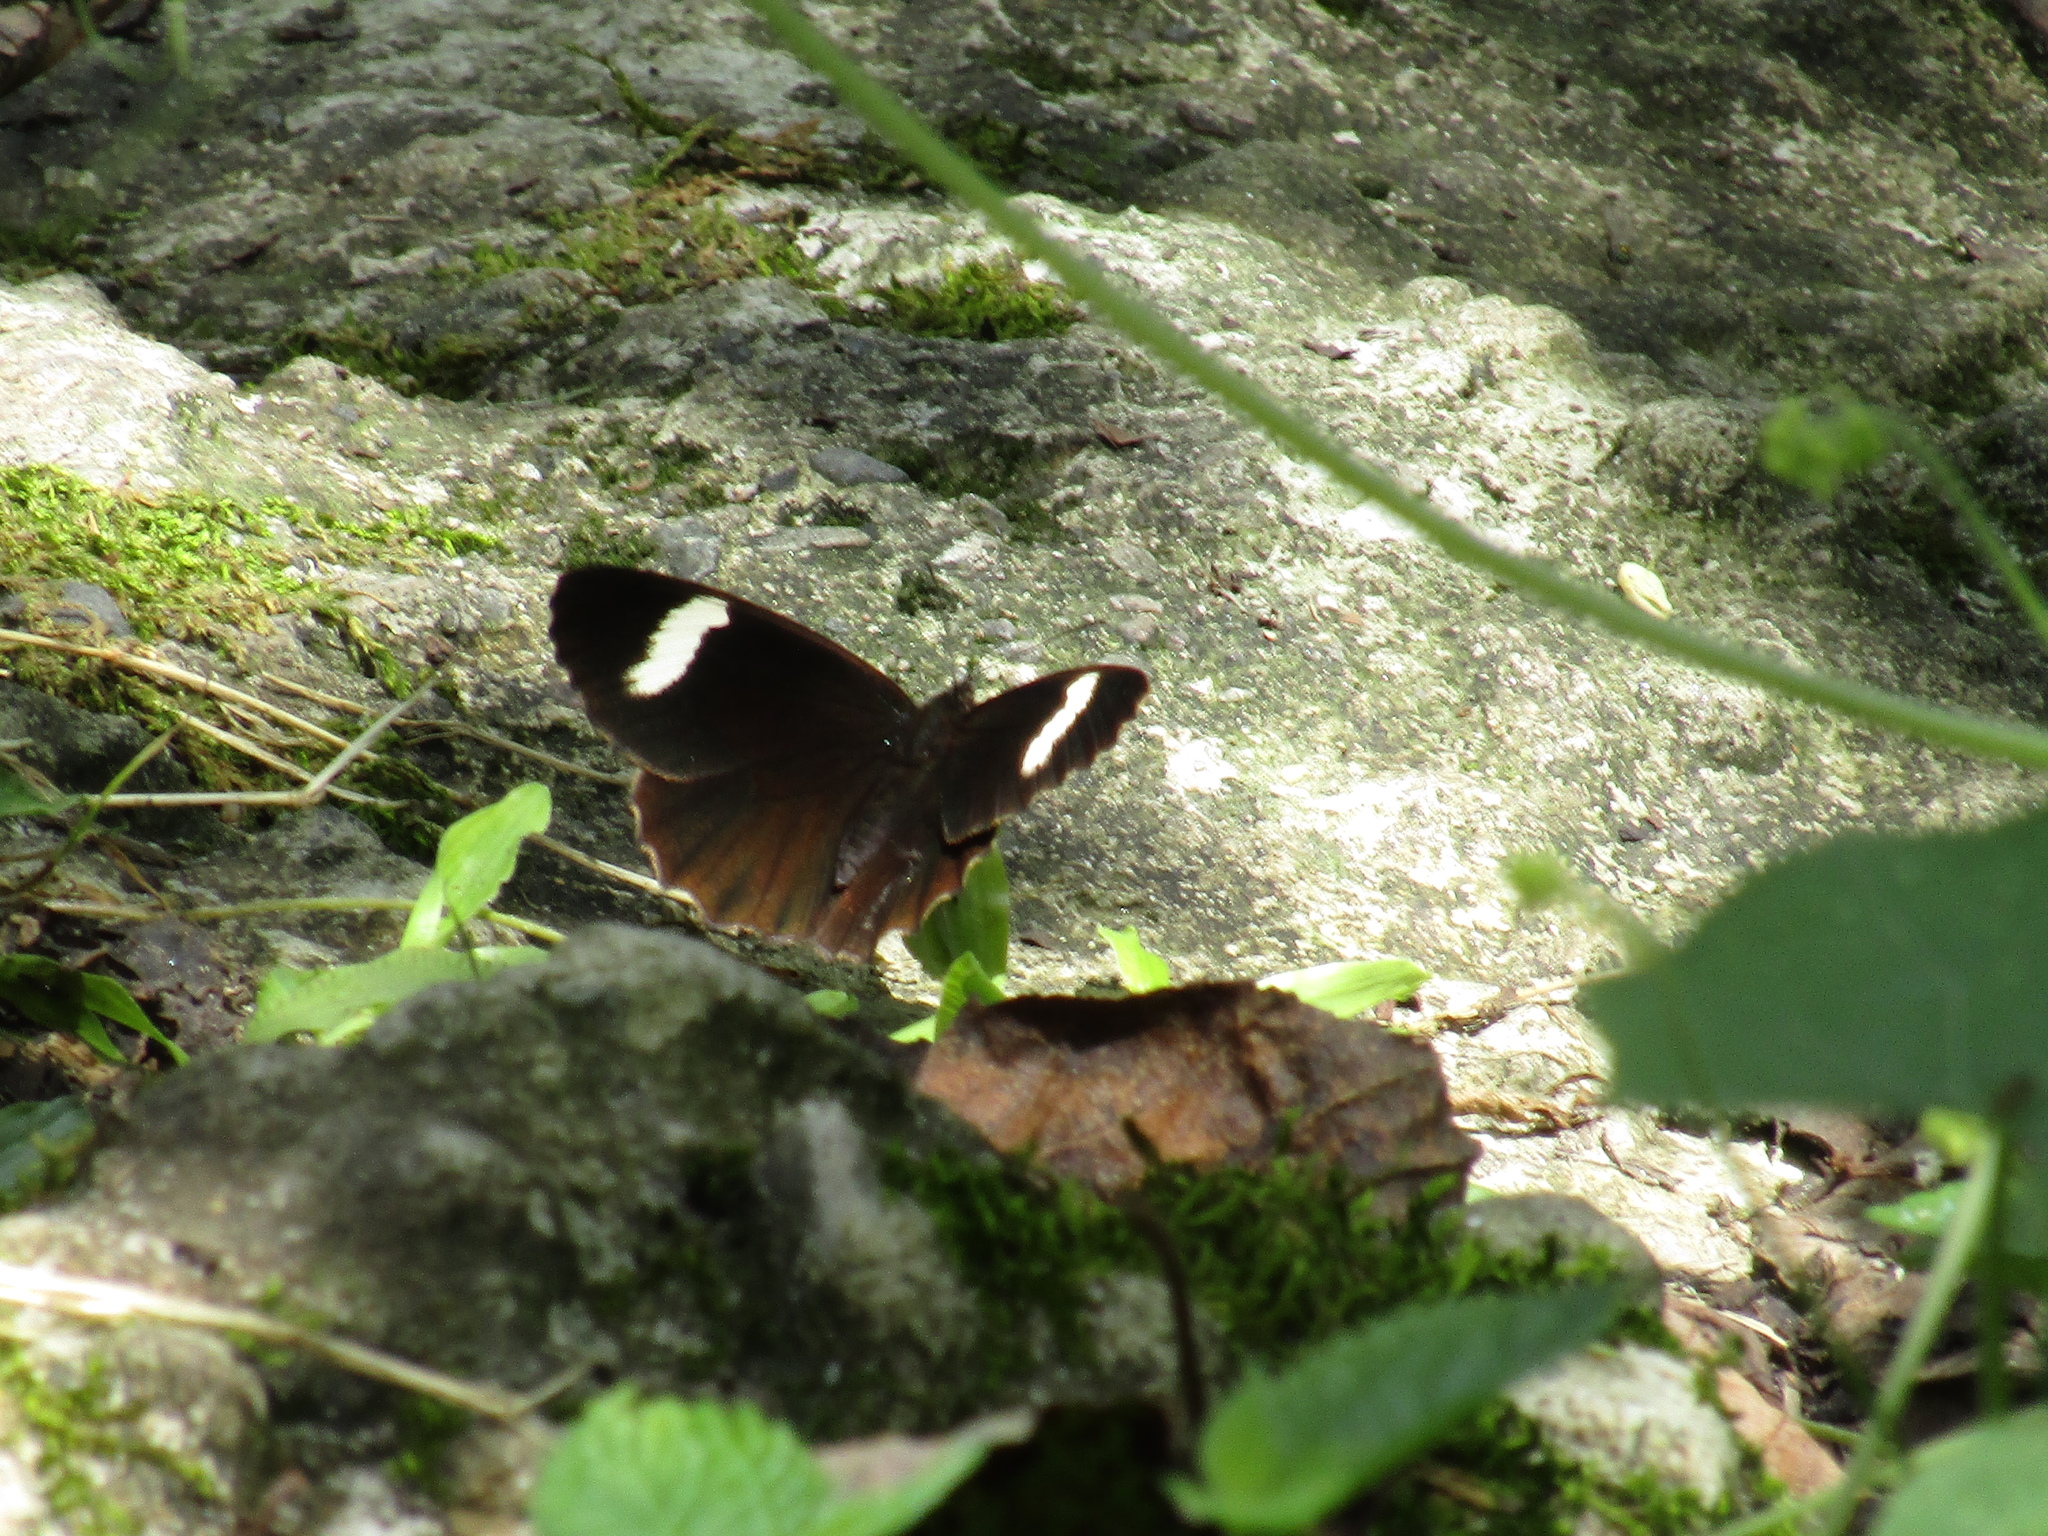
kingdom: Animalia
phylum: Arthropoda
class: Insecta
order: Lepidoptera
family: Nymphalidae
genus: Pedaliodes
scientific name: Pedaliodes porina
